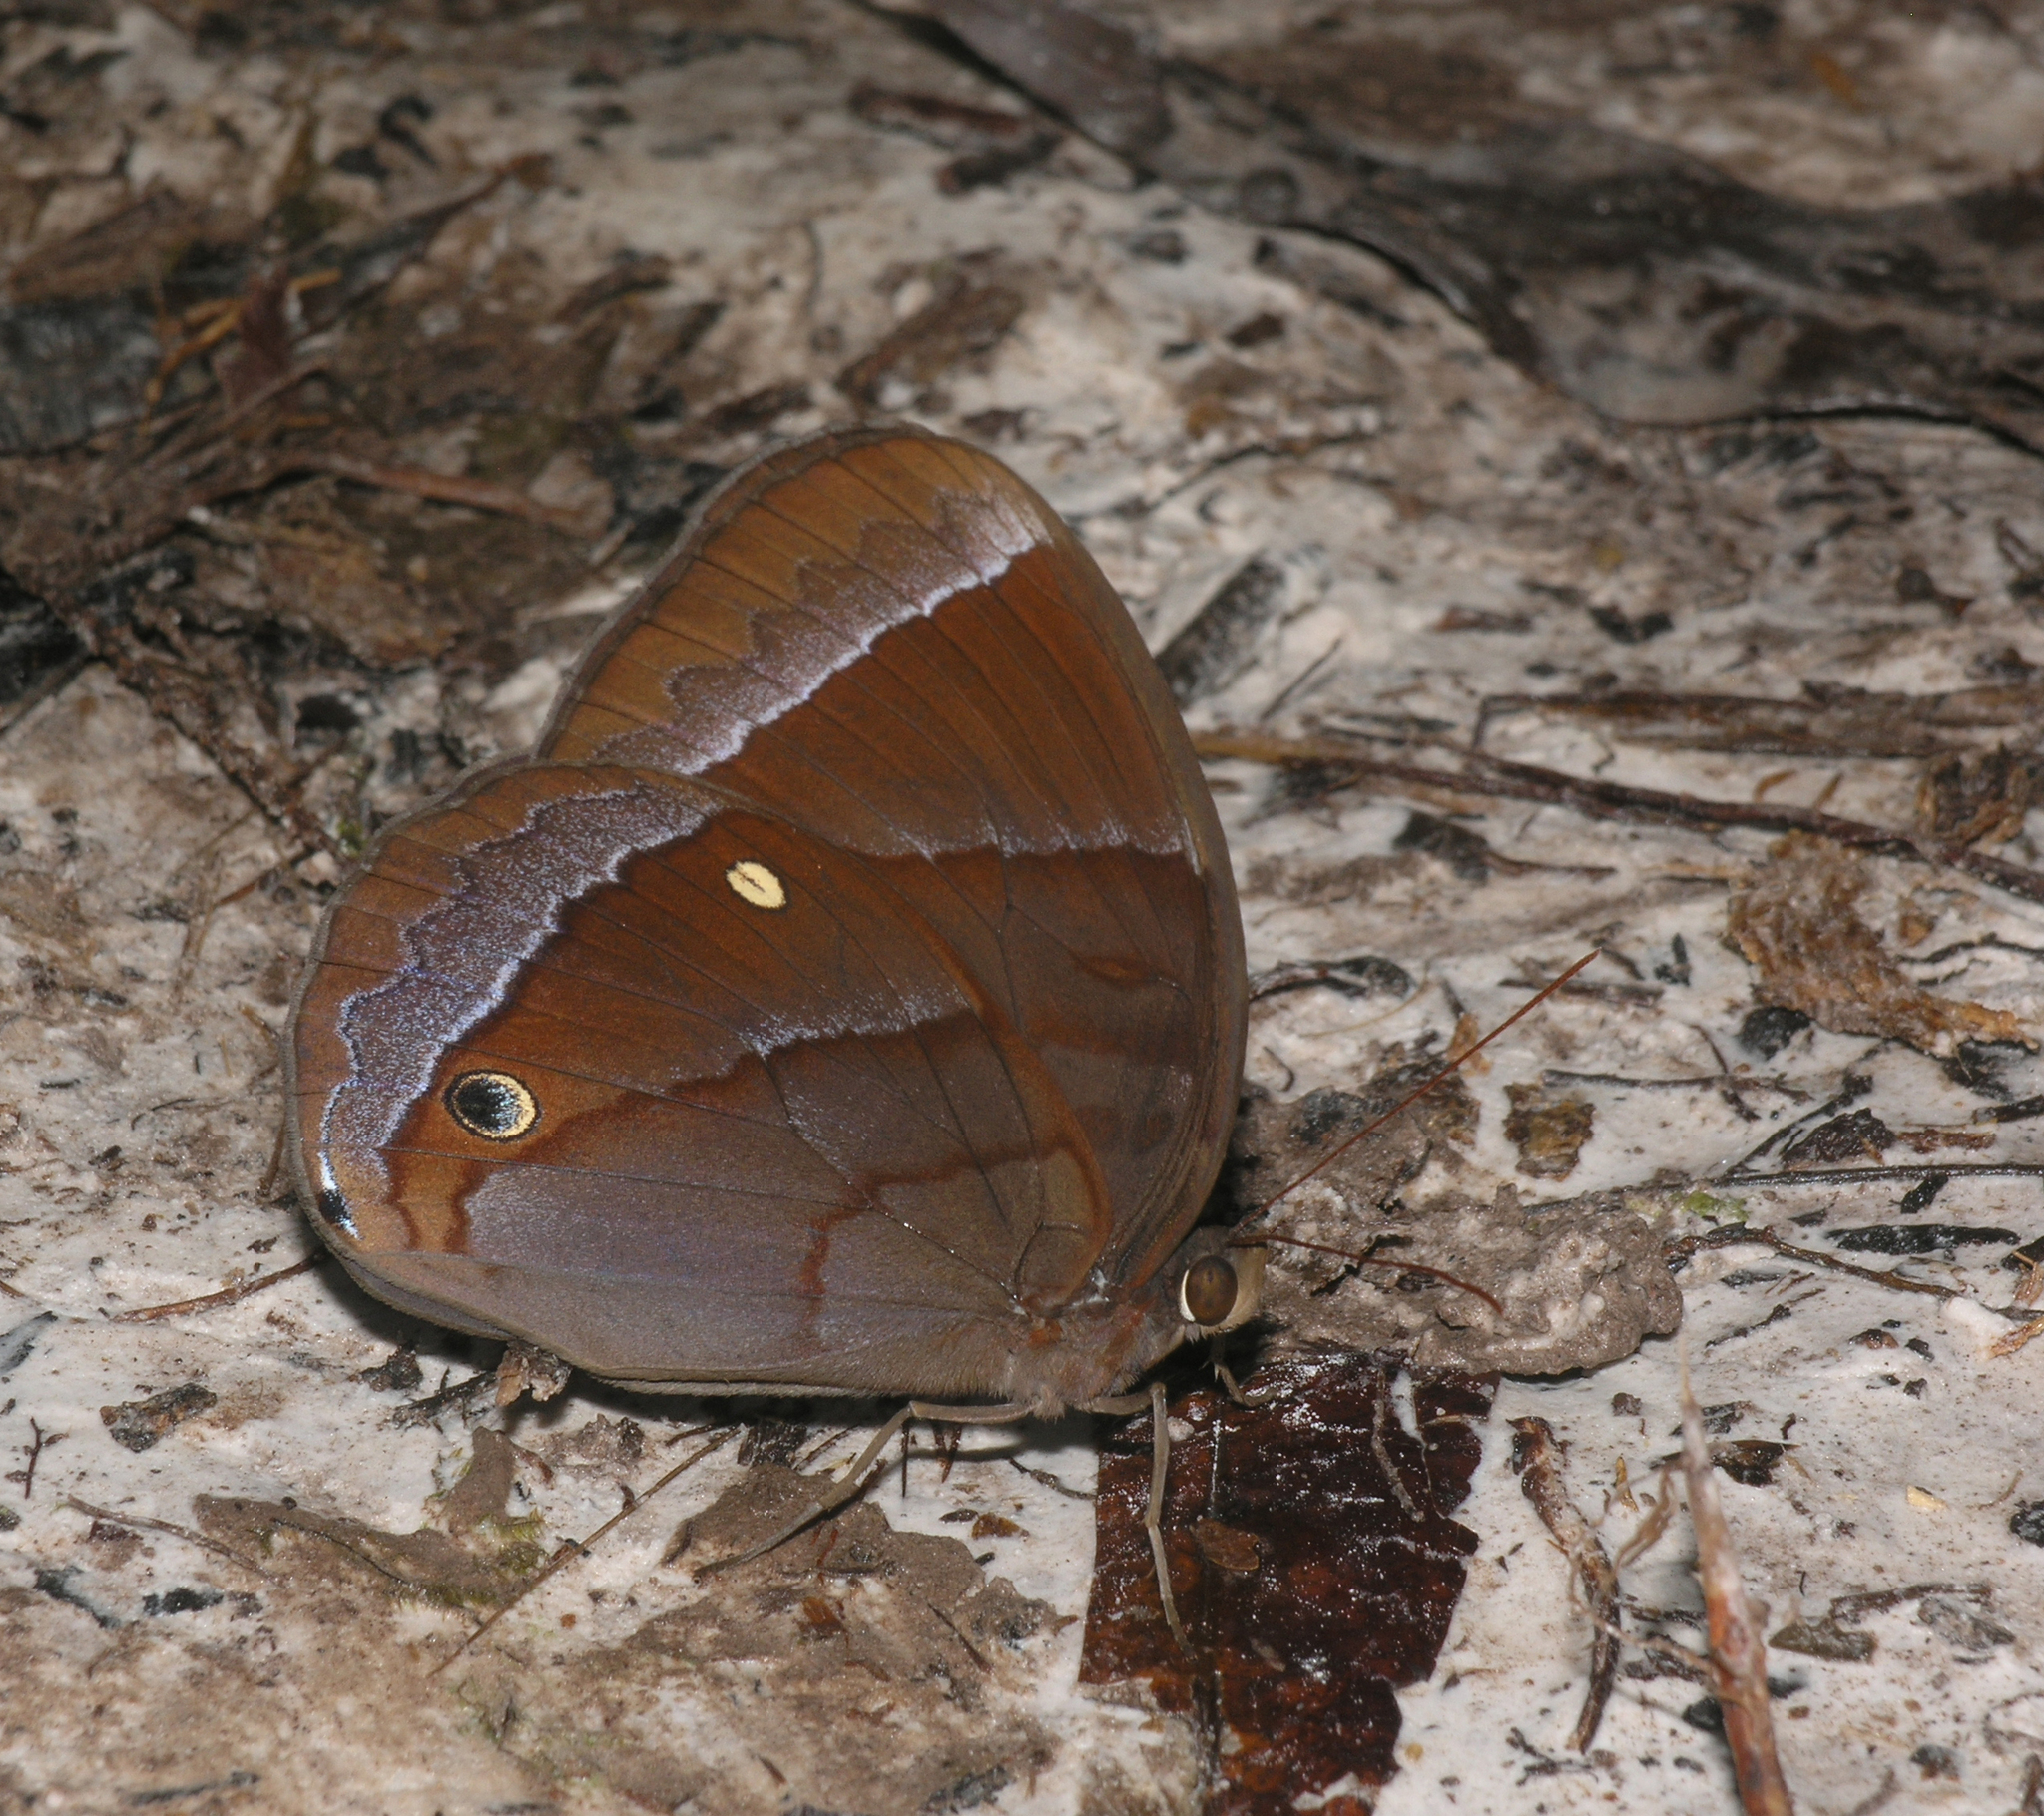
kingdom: Animalia
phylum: Arthropoda
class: Insecta
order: Lepidoptera
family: Nymphalidae
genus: Thaumantis
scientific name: Thaumantis diores
